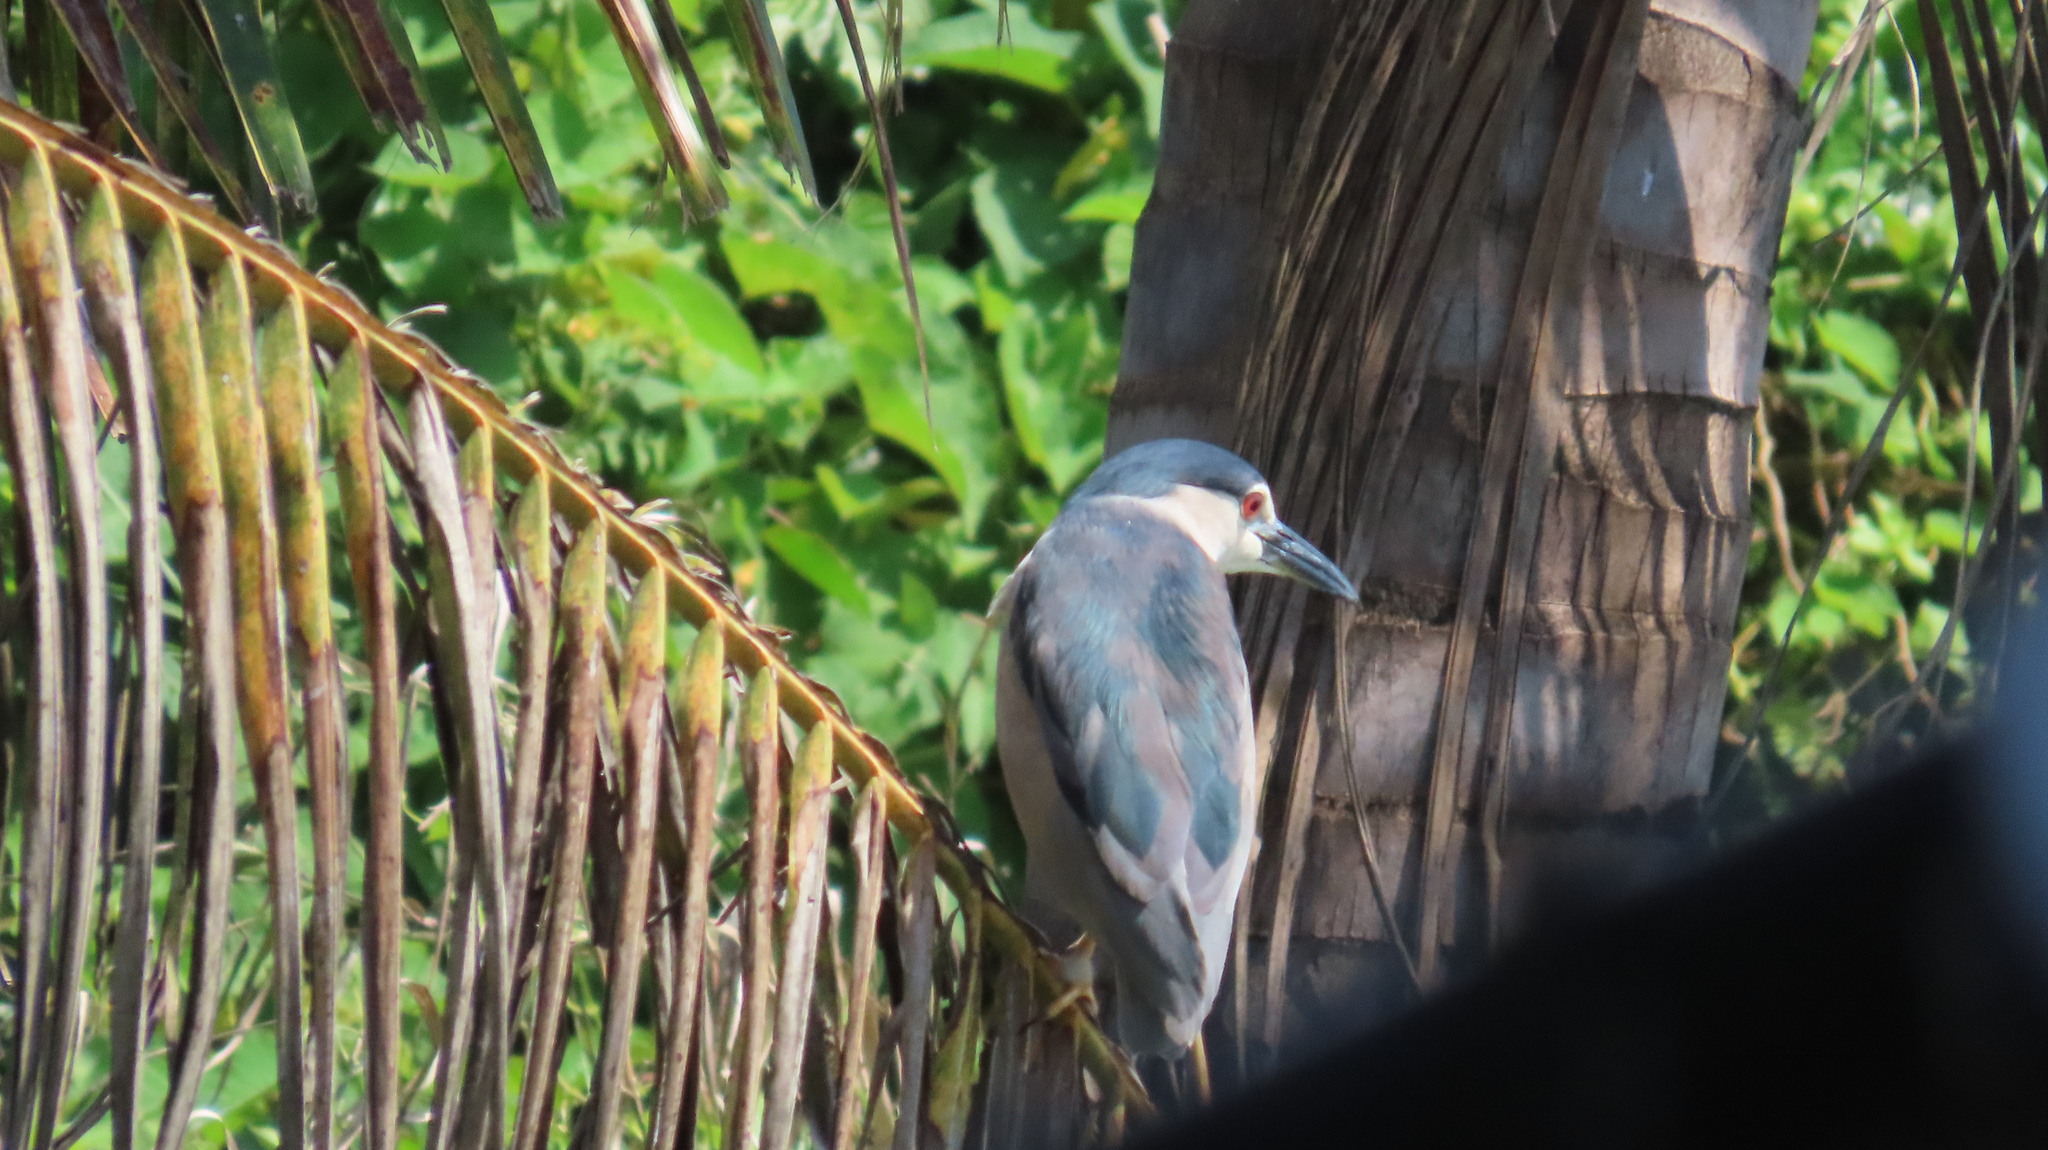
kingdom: Animalia
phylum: Chordata
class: Aves
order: Pelecaniformes
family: Ardeidae
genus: Nycticorax
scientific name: Nycticorax nycticorax
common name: Black-crowned night heron
